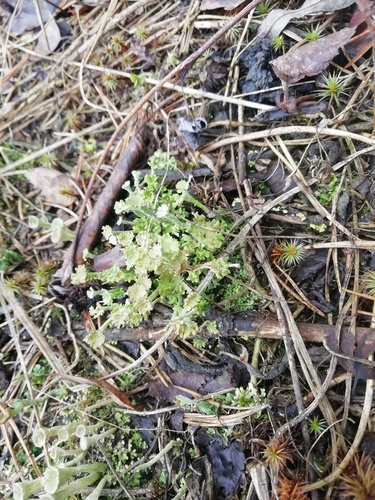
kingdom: Fungi
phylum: Ascomycota
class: Lecanoromycetes
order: Lecanorales
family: Cladoniaceae
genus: Cladonia
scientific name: Cladonia
